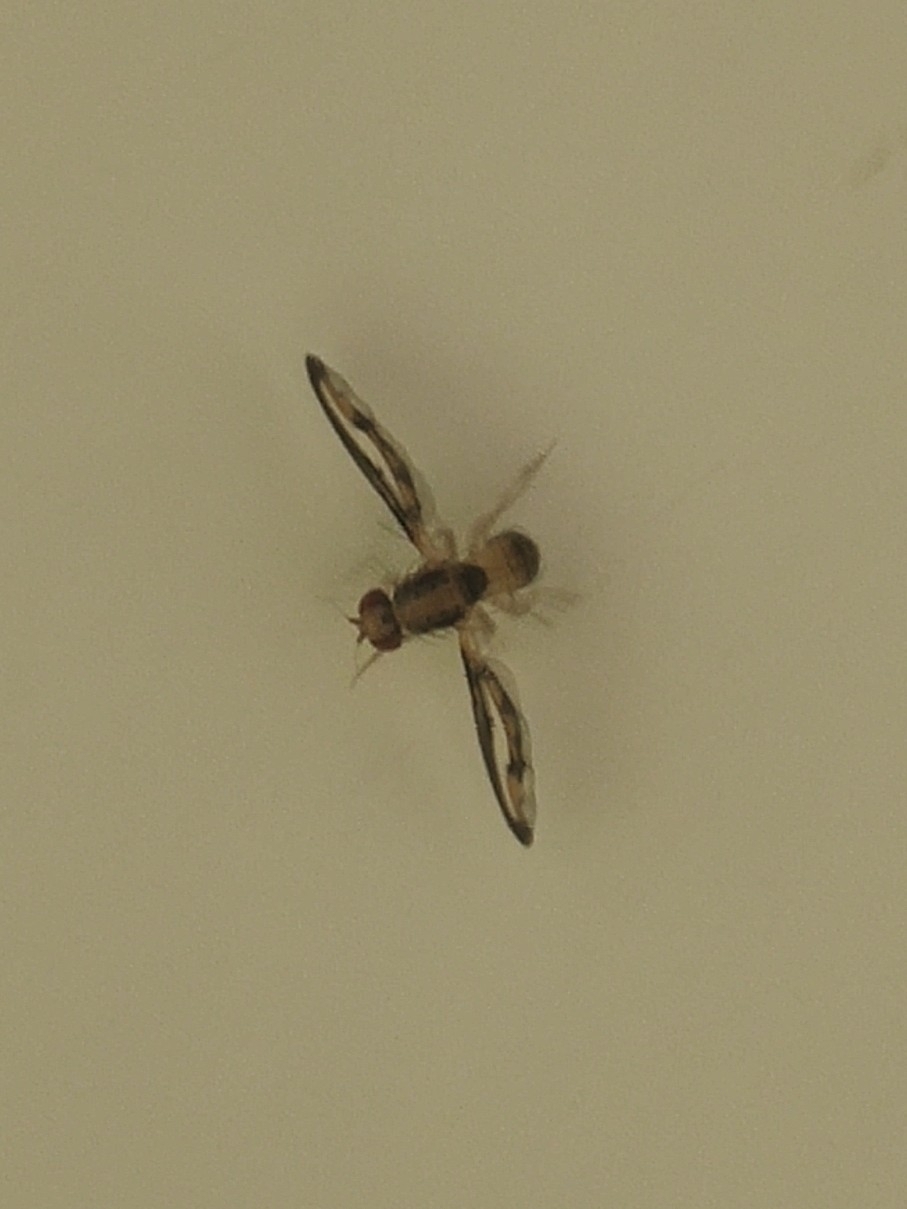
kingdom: Animalia
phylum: Arthropoda
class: Insecta
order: Diptera
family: Pallopteridae
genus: Toxonevra
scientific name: Toxonevra muliebris
